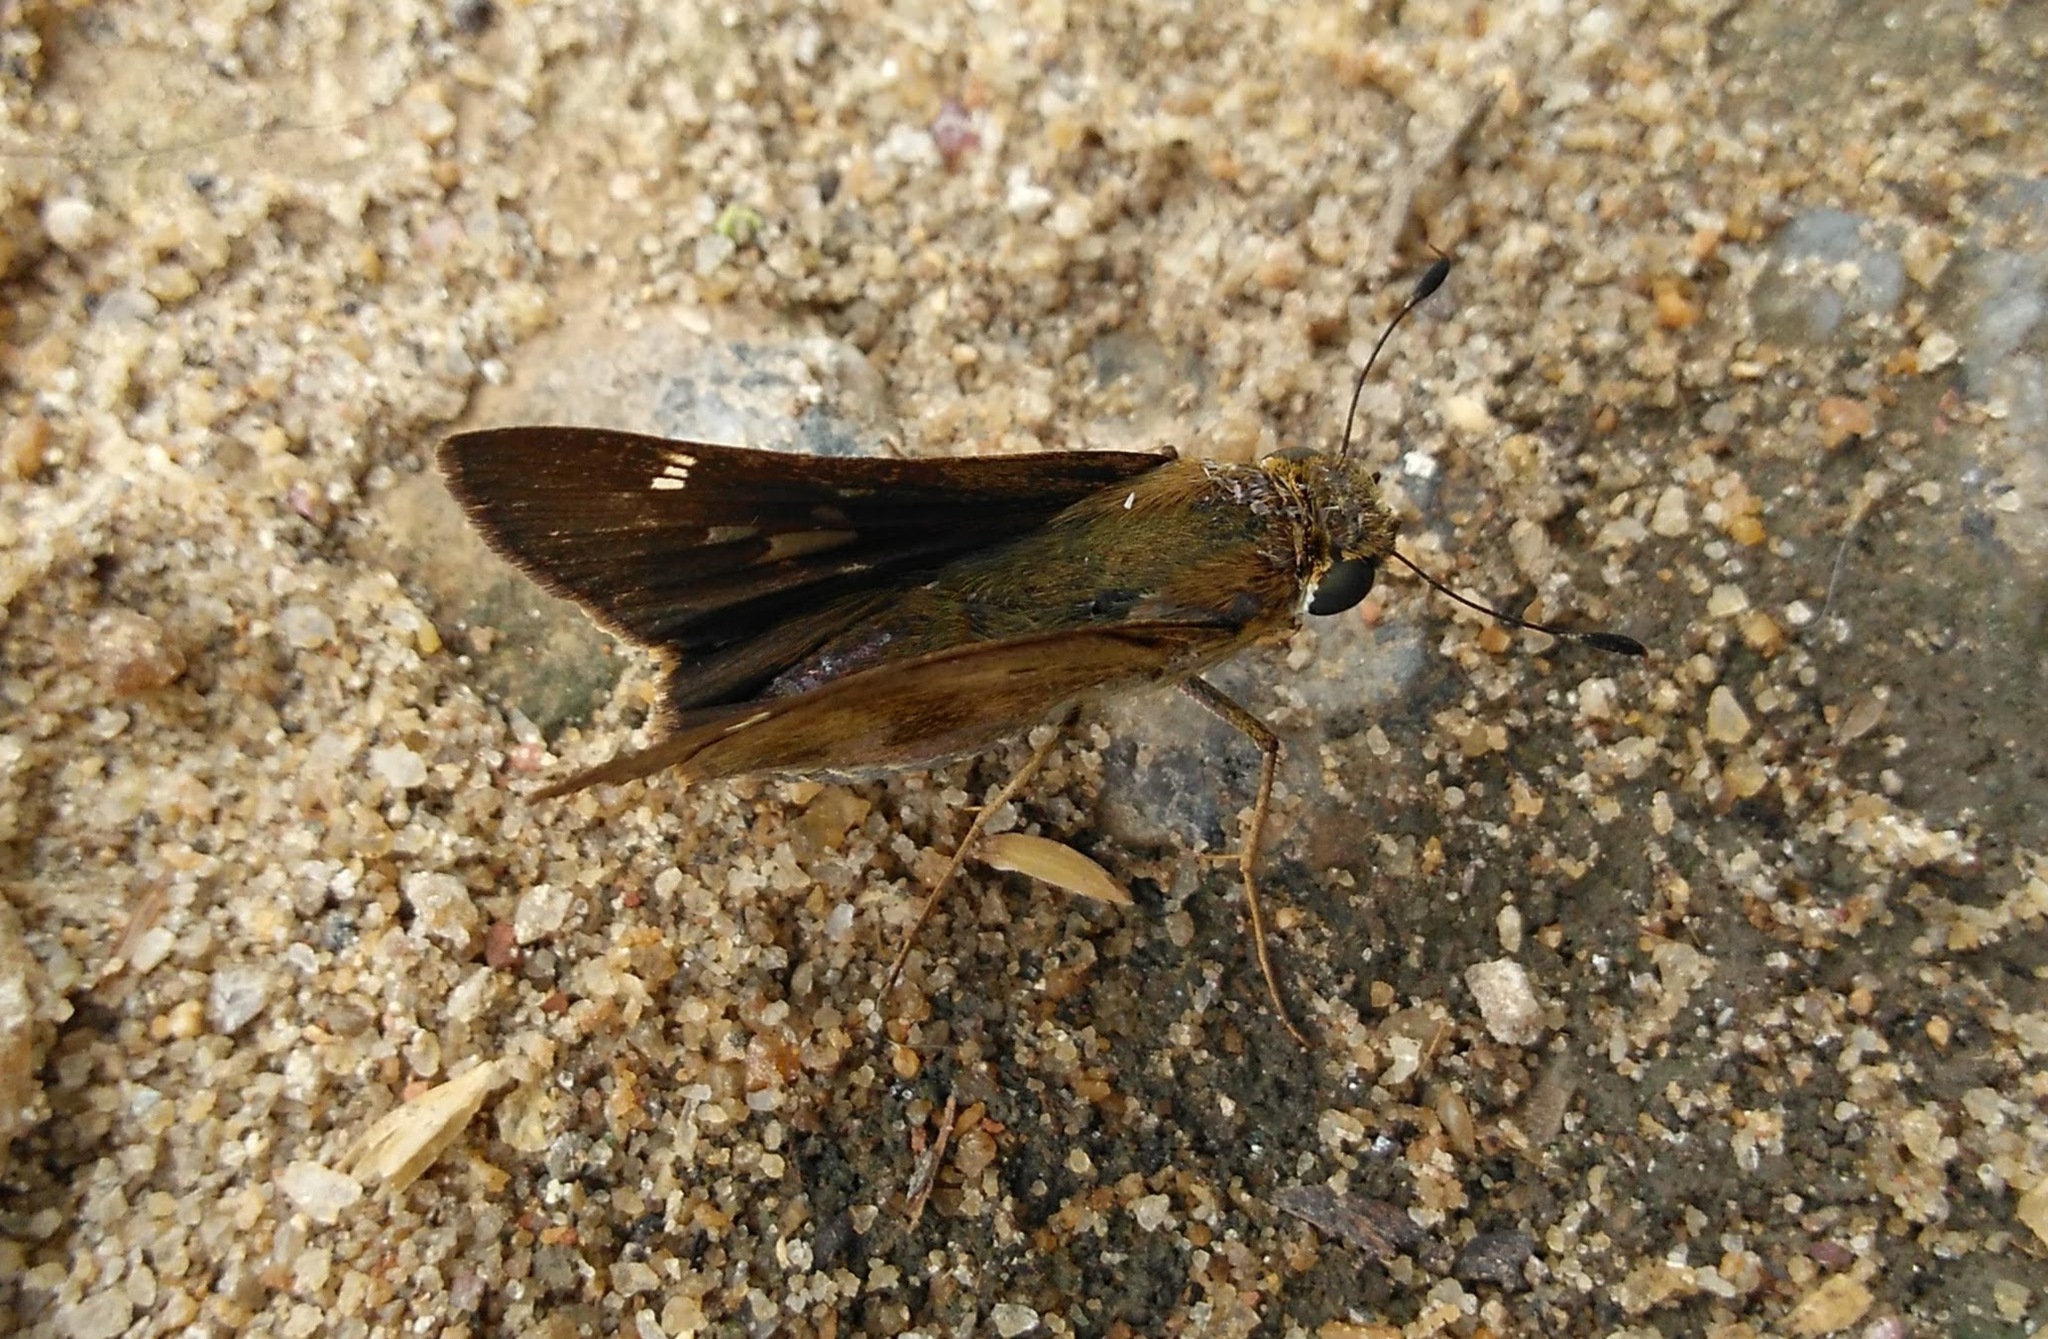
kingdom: Animalia
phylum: Arthropoda
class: Insecta
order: Lepidoptera
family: Hesperiidae
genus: Nyctelius
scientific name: Nyctelius nyctelius
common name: Violet-banded skipper
